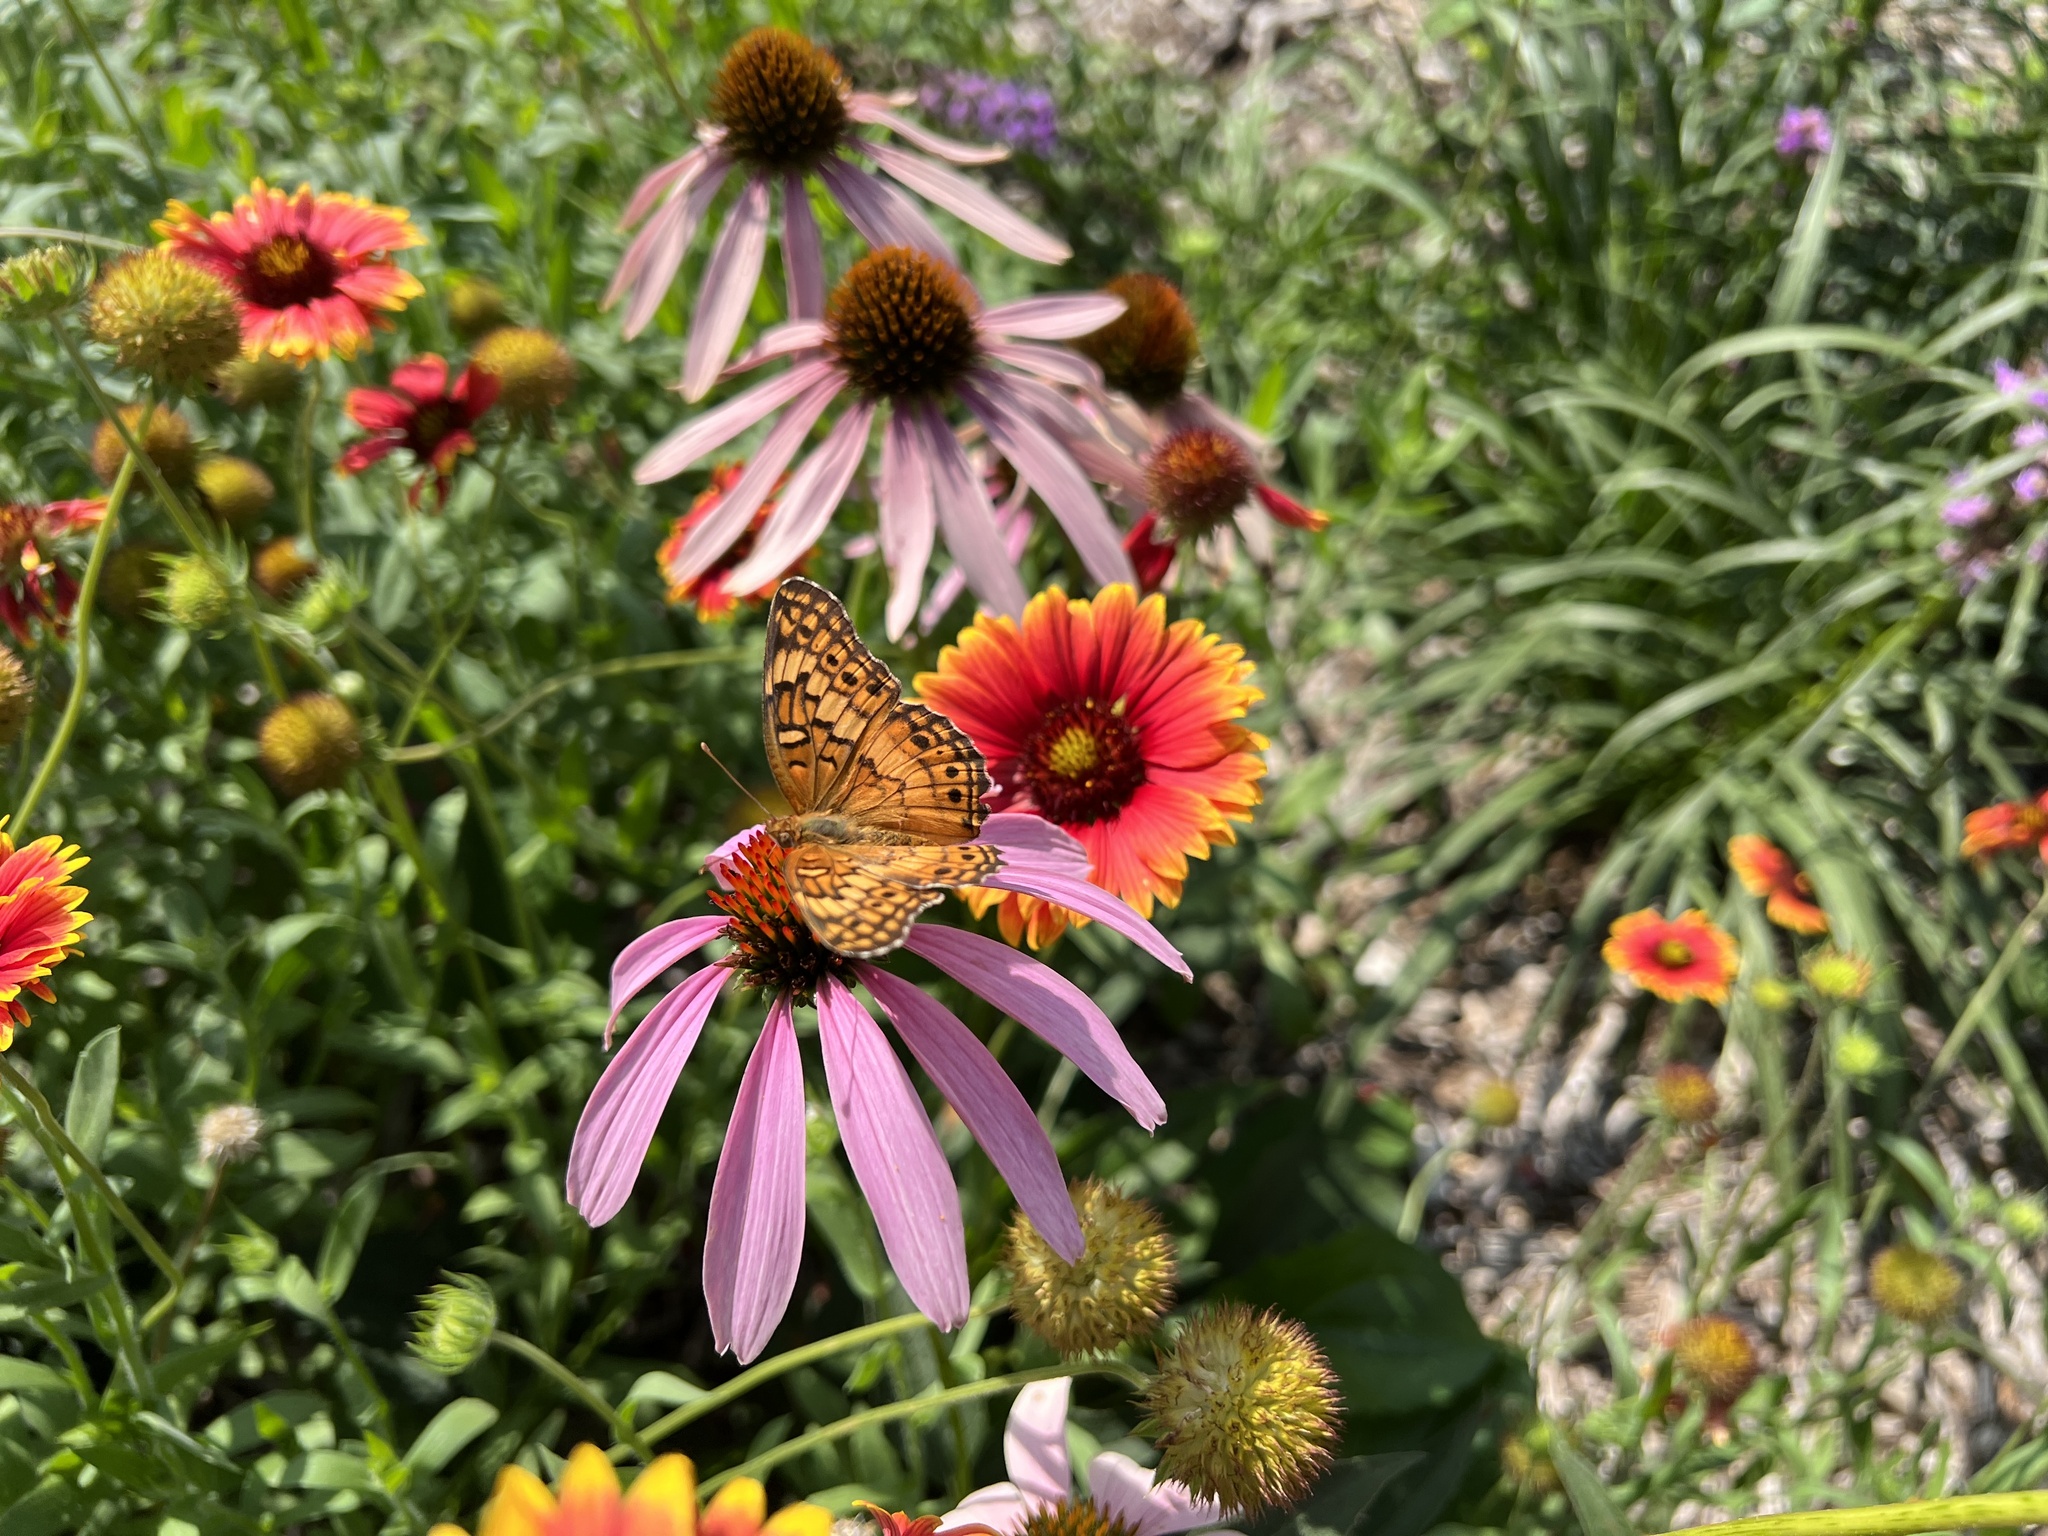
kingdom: Animalia
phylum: Arthropoda
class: Insecta
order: Lepidoptera
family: Nymphalidae
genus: Euptoieta
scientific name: Euptoieta claudia
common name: Variegated fritillary
